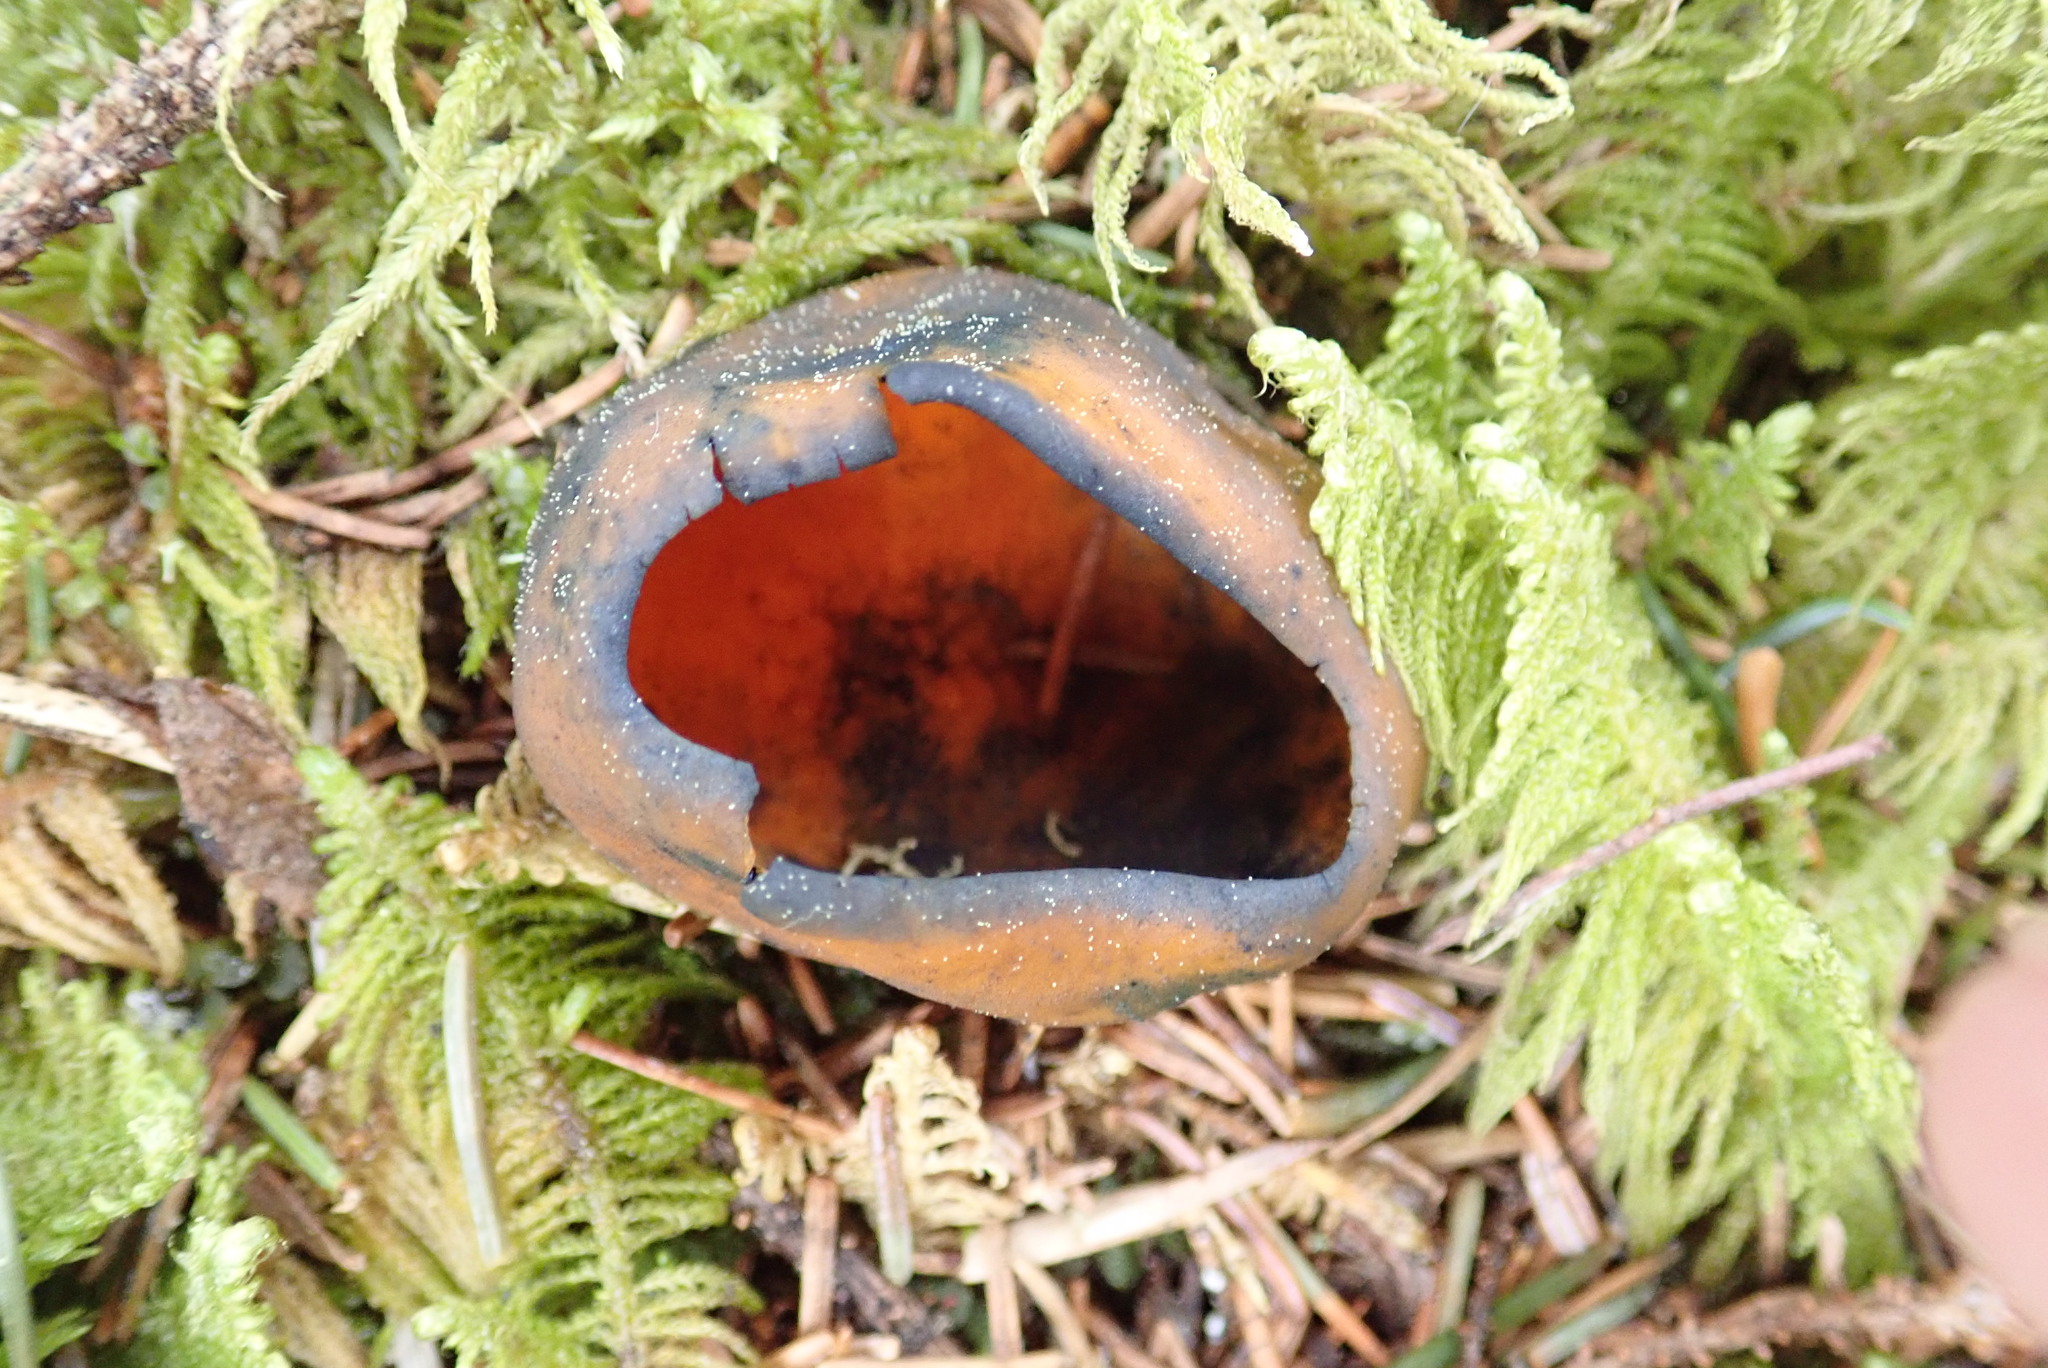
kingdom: Fungi
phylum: Ascomycota
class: Pezizomycetes
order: Pezizales
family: Caloscyphaceae
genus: Caloscypha
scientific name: Caloscypha fulgens
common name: Golden cup
